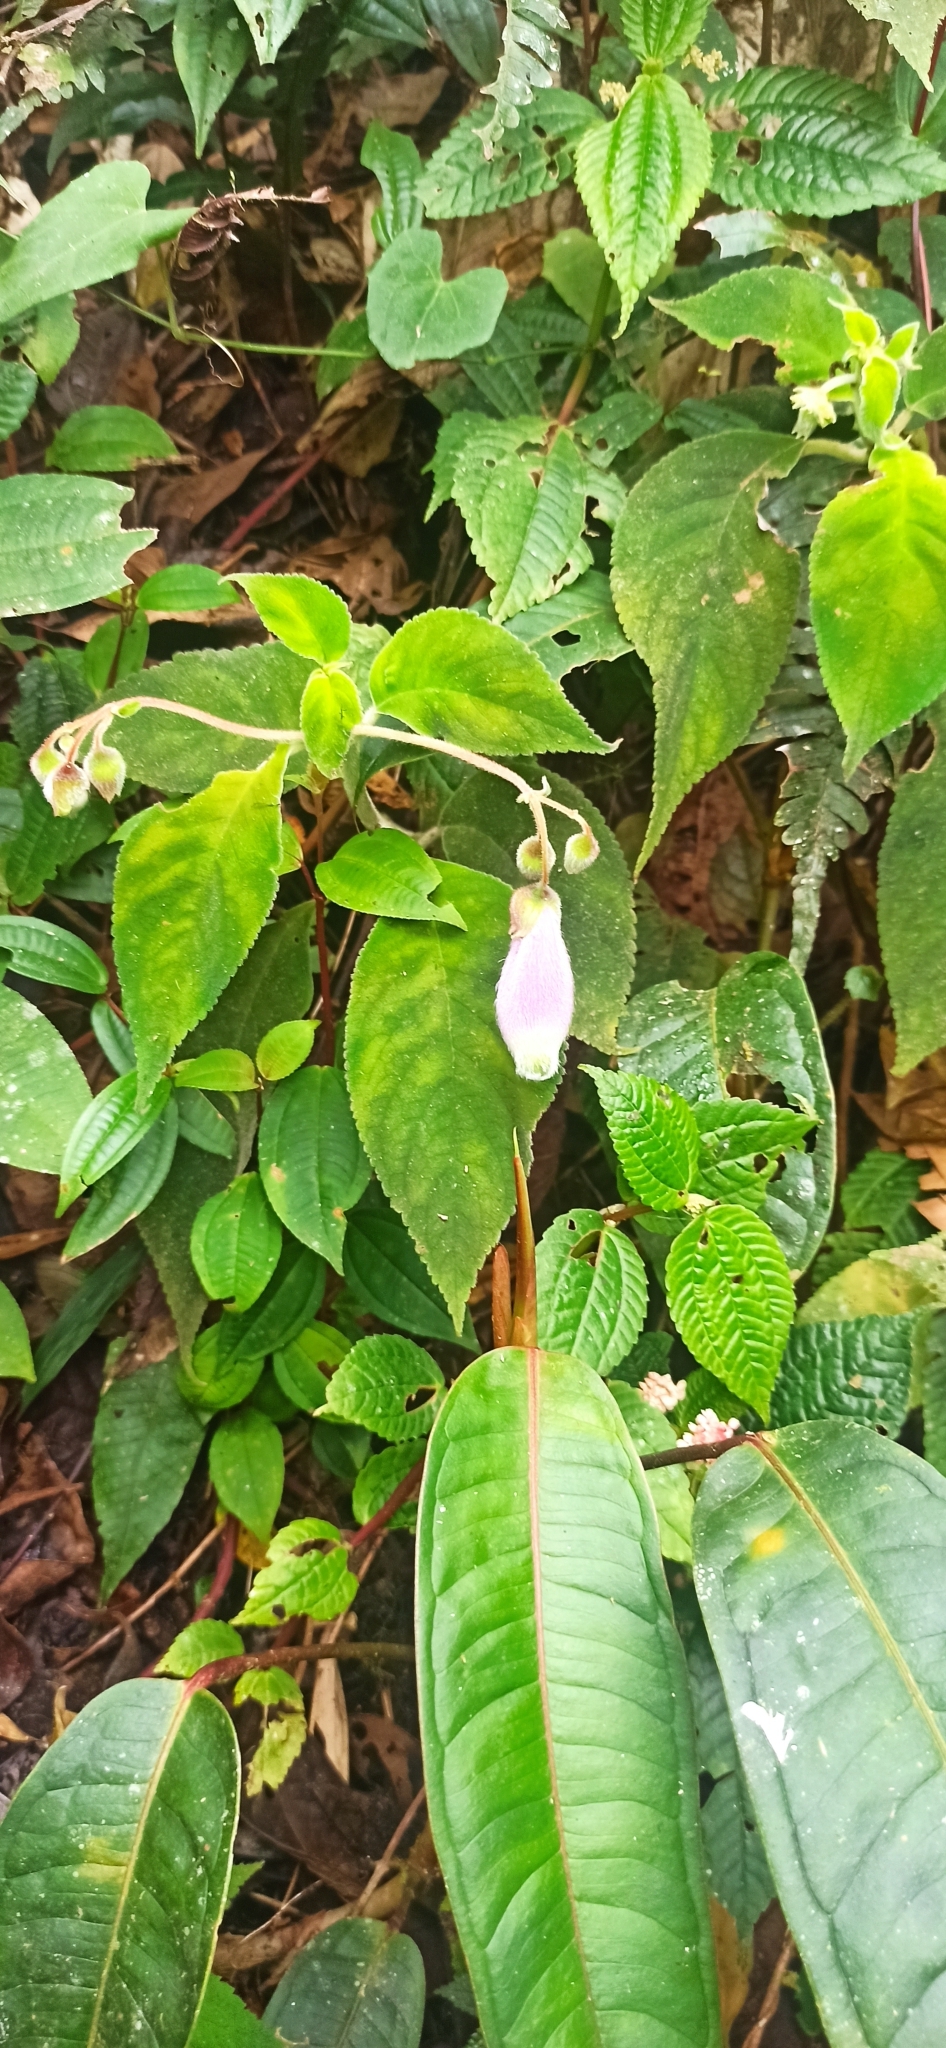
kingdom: Plantae
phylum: Tracheophyta
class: Magnoliopsida
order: Lamiales
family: Gesneriaceae
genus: Kohleria
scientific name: Kohleria affinis
